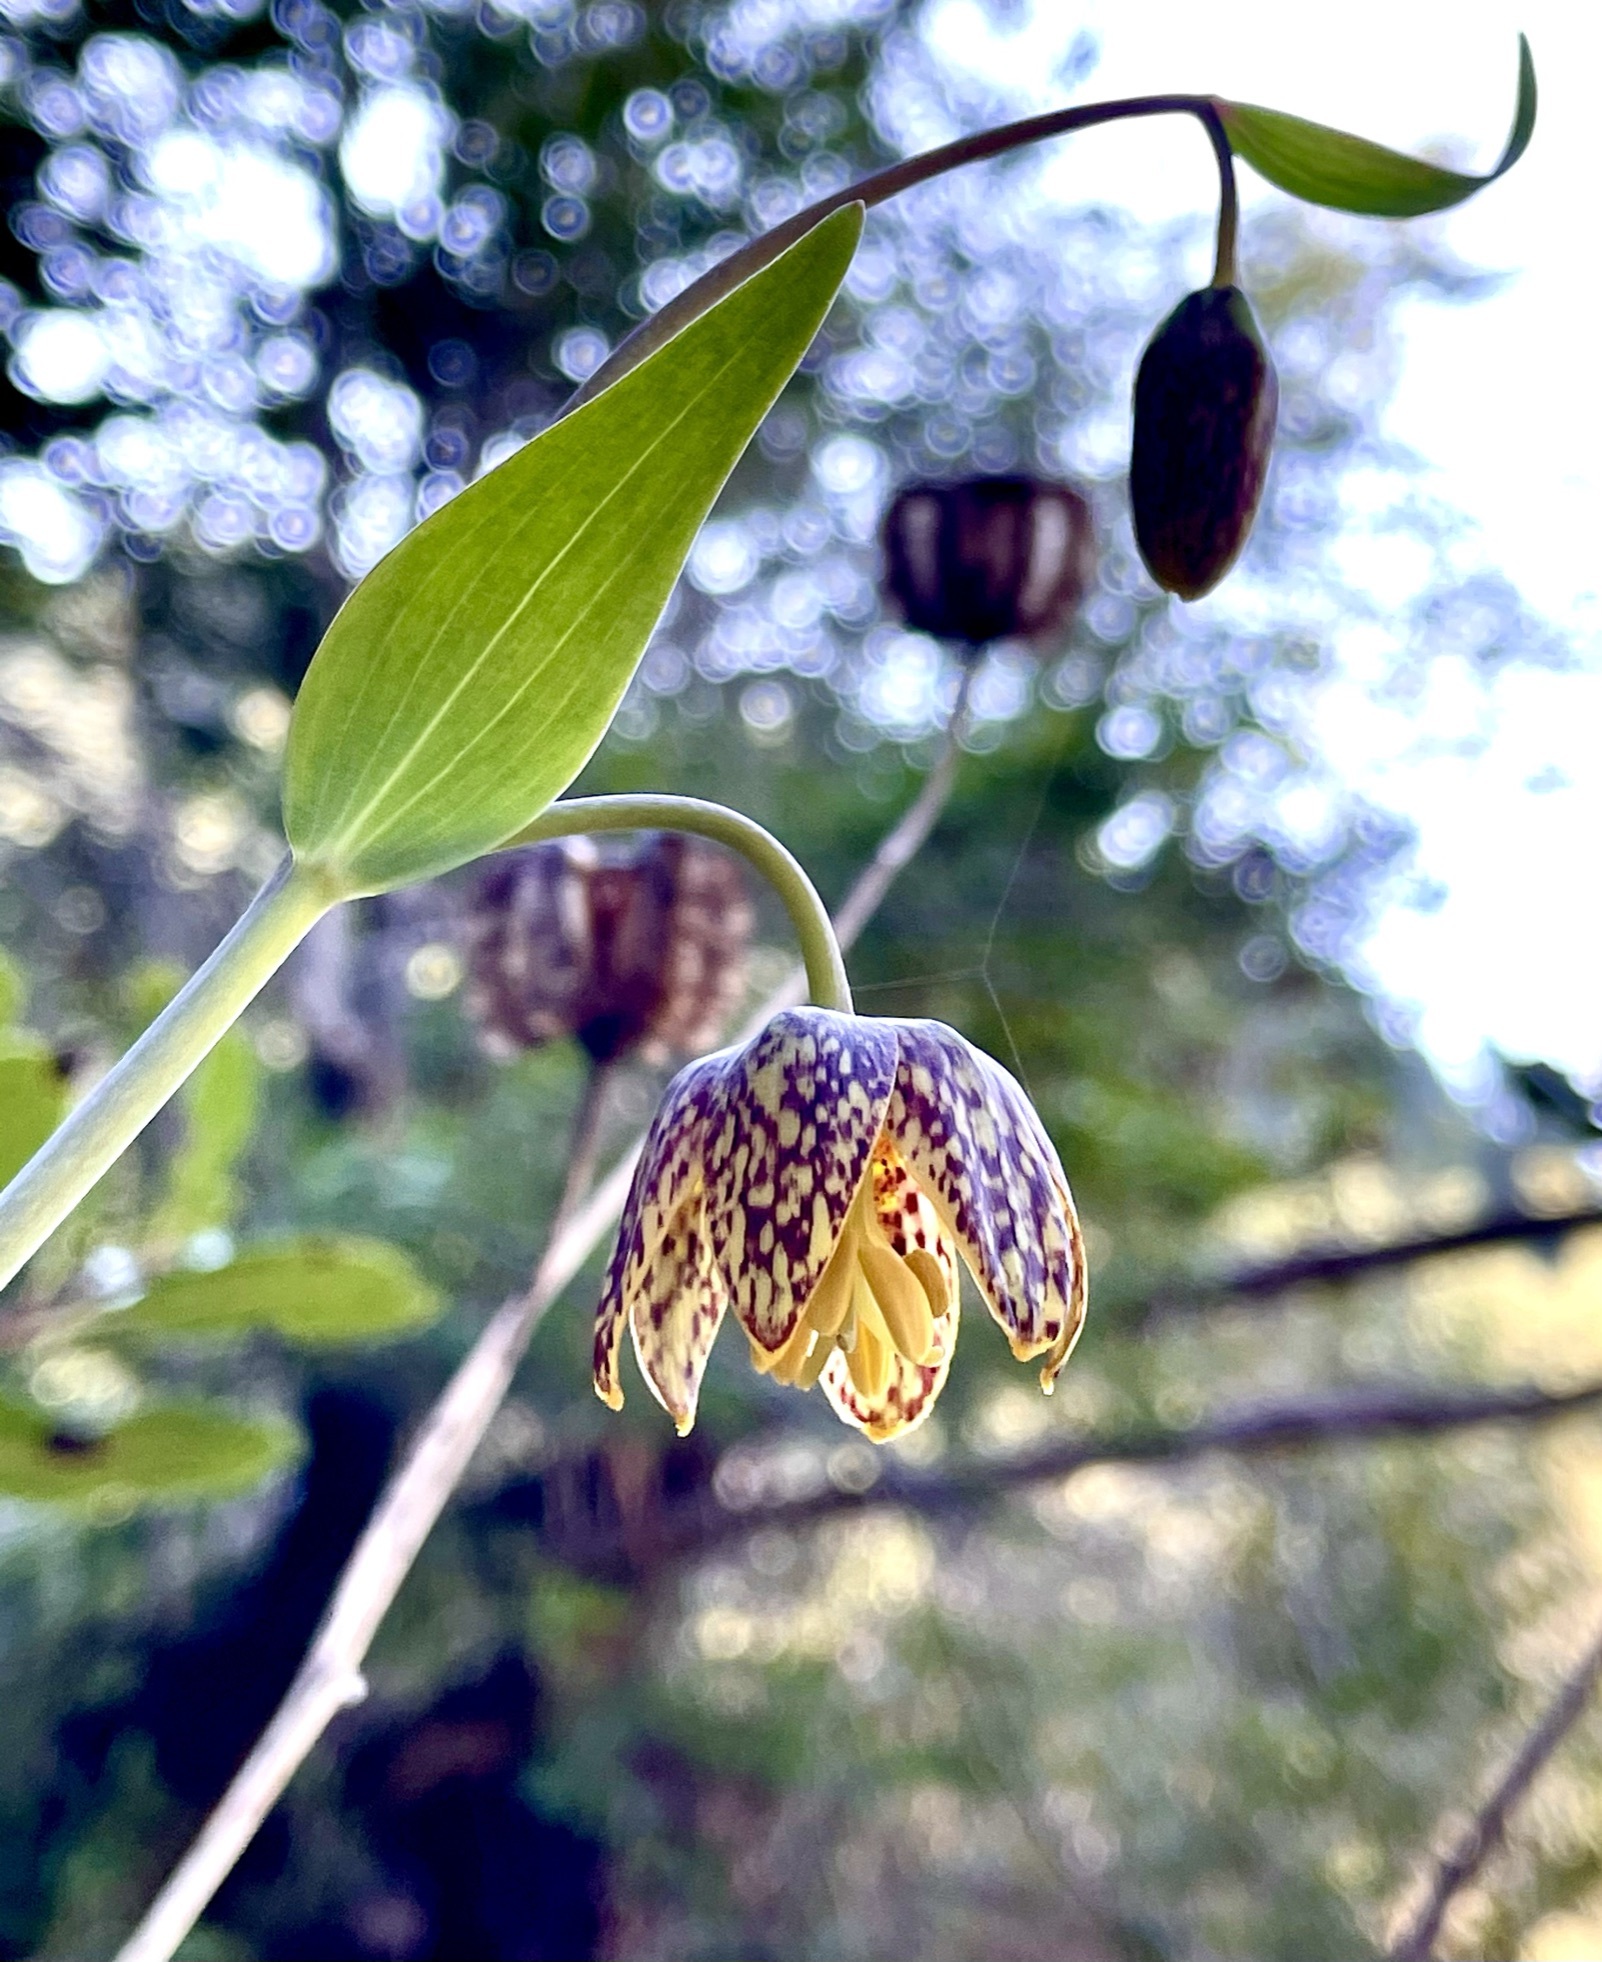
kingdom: Plantae
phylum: Tracheophyta
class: Liliopsida
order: Liliales
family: Liliaceae
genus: Fritillaria
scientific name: Fritillaria affinis
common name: Ojai fritillary
